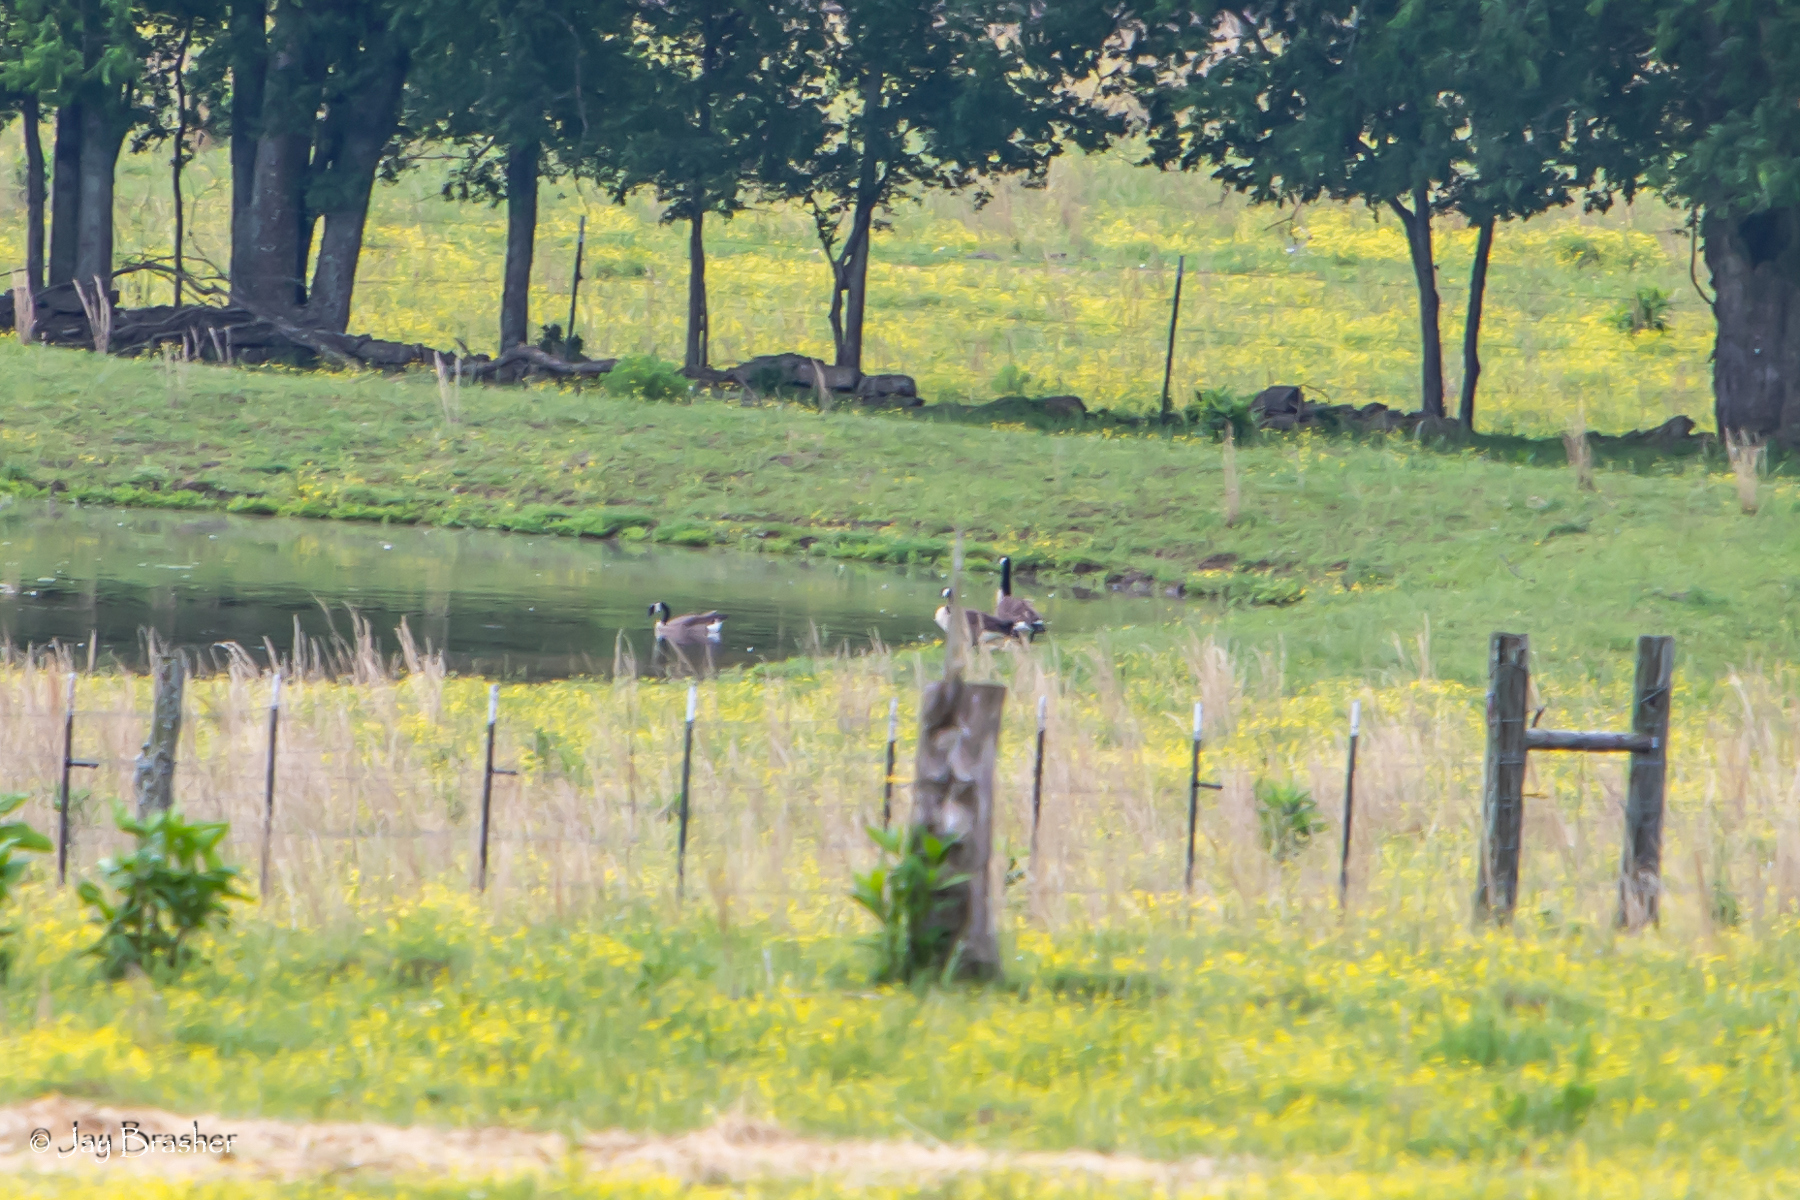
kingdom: Animalia
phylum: Chordata
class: Aves
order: Anseriformes
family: Anatidae
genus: Branta
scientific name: Branta canadensis
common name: Canada goose
